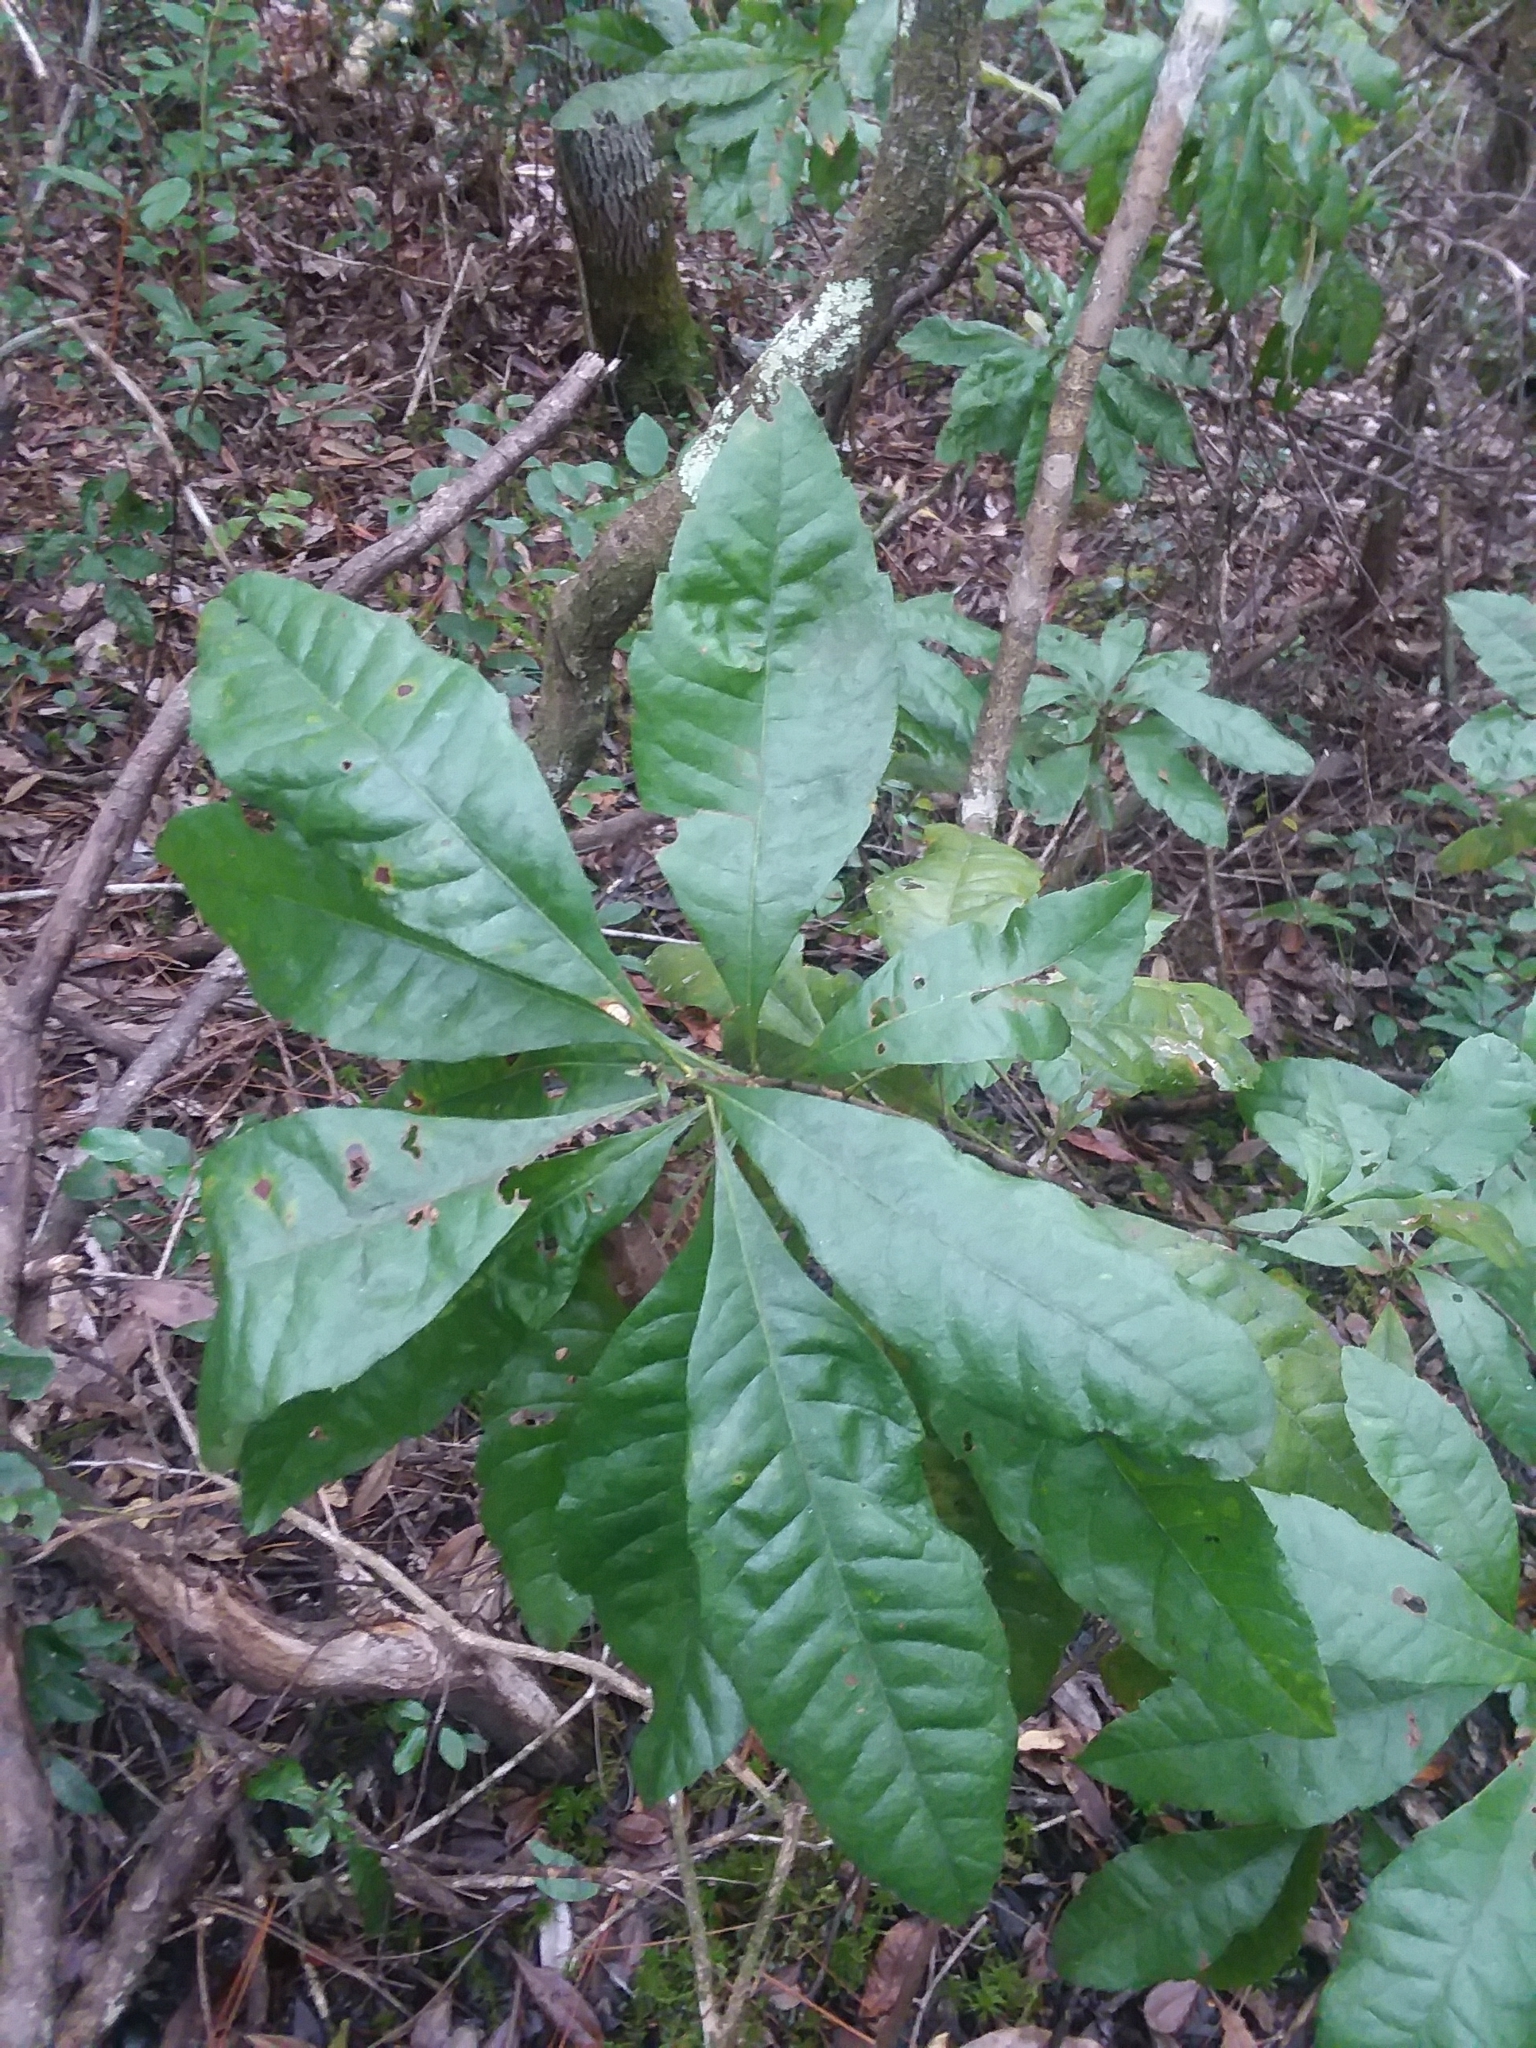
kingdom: Plantae
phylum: Tracheophyta
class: Magnoliopsida
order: Fagales
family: Myricaceae
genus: Morella
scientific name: Morella caroliniensis
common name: Evergreen bayberry
